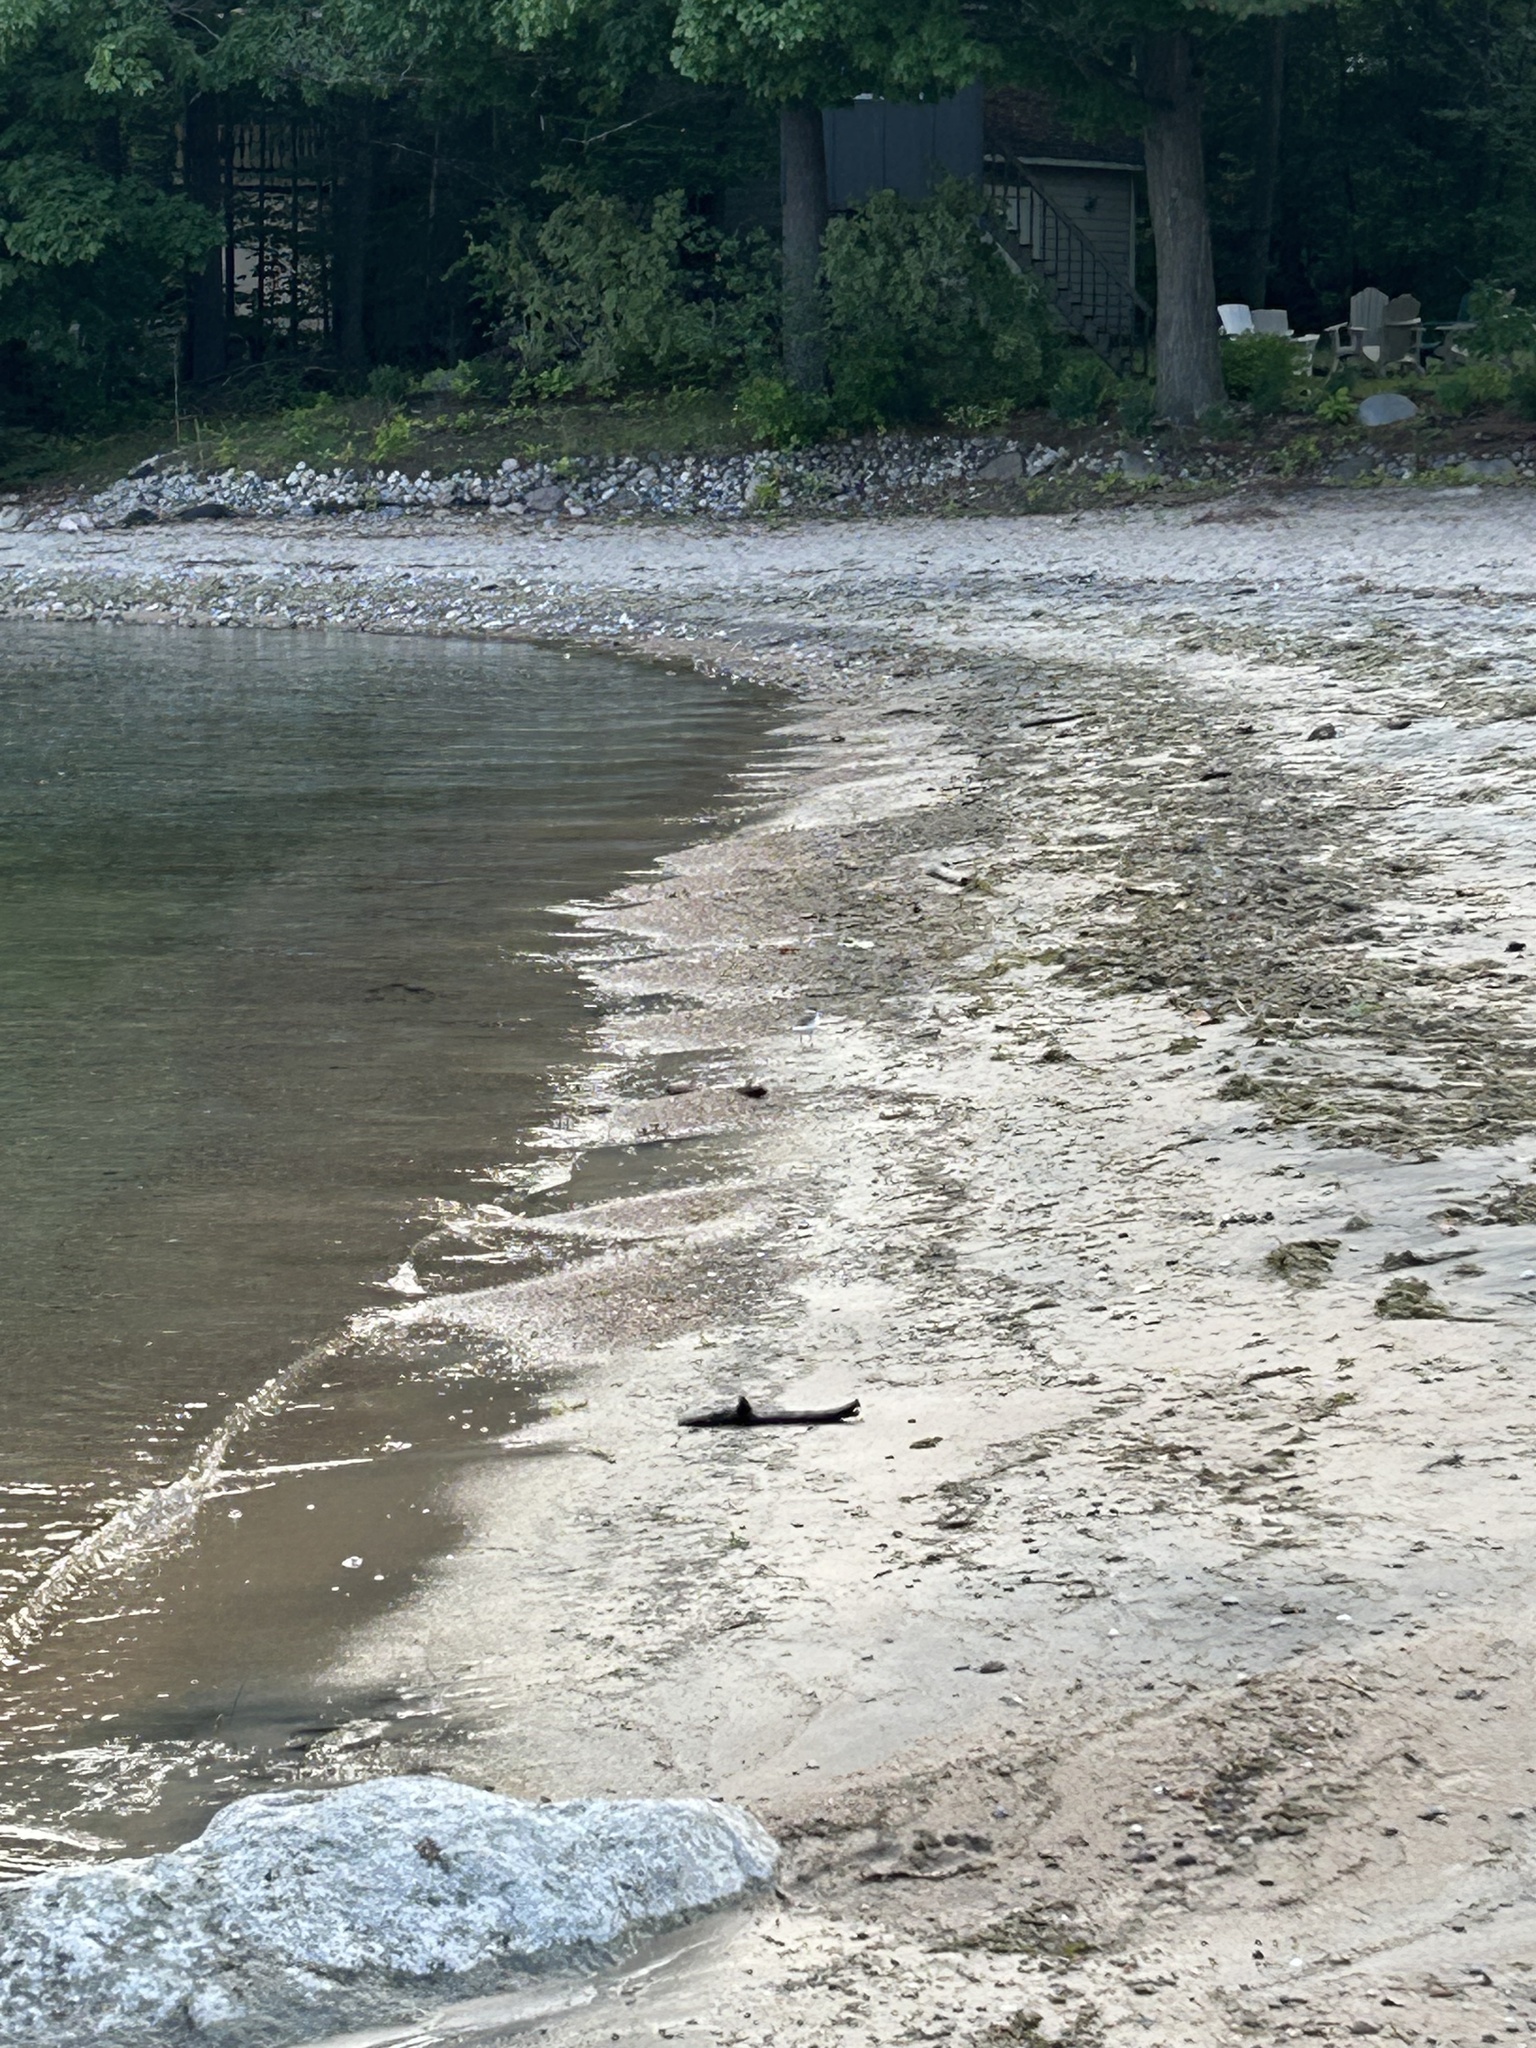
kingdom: Animalia
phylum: Chordata
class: Aves
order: Charadriiformes
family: Charadriidae
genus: Charadrius
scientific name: Charadrius semipalmatus
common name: Semipalmated plover
